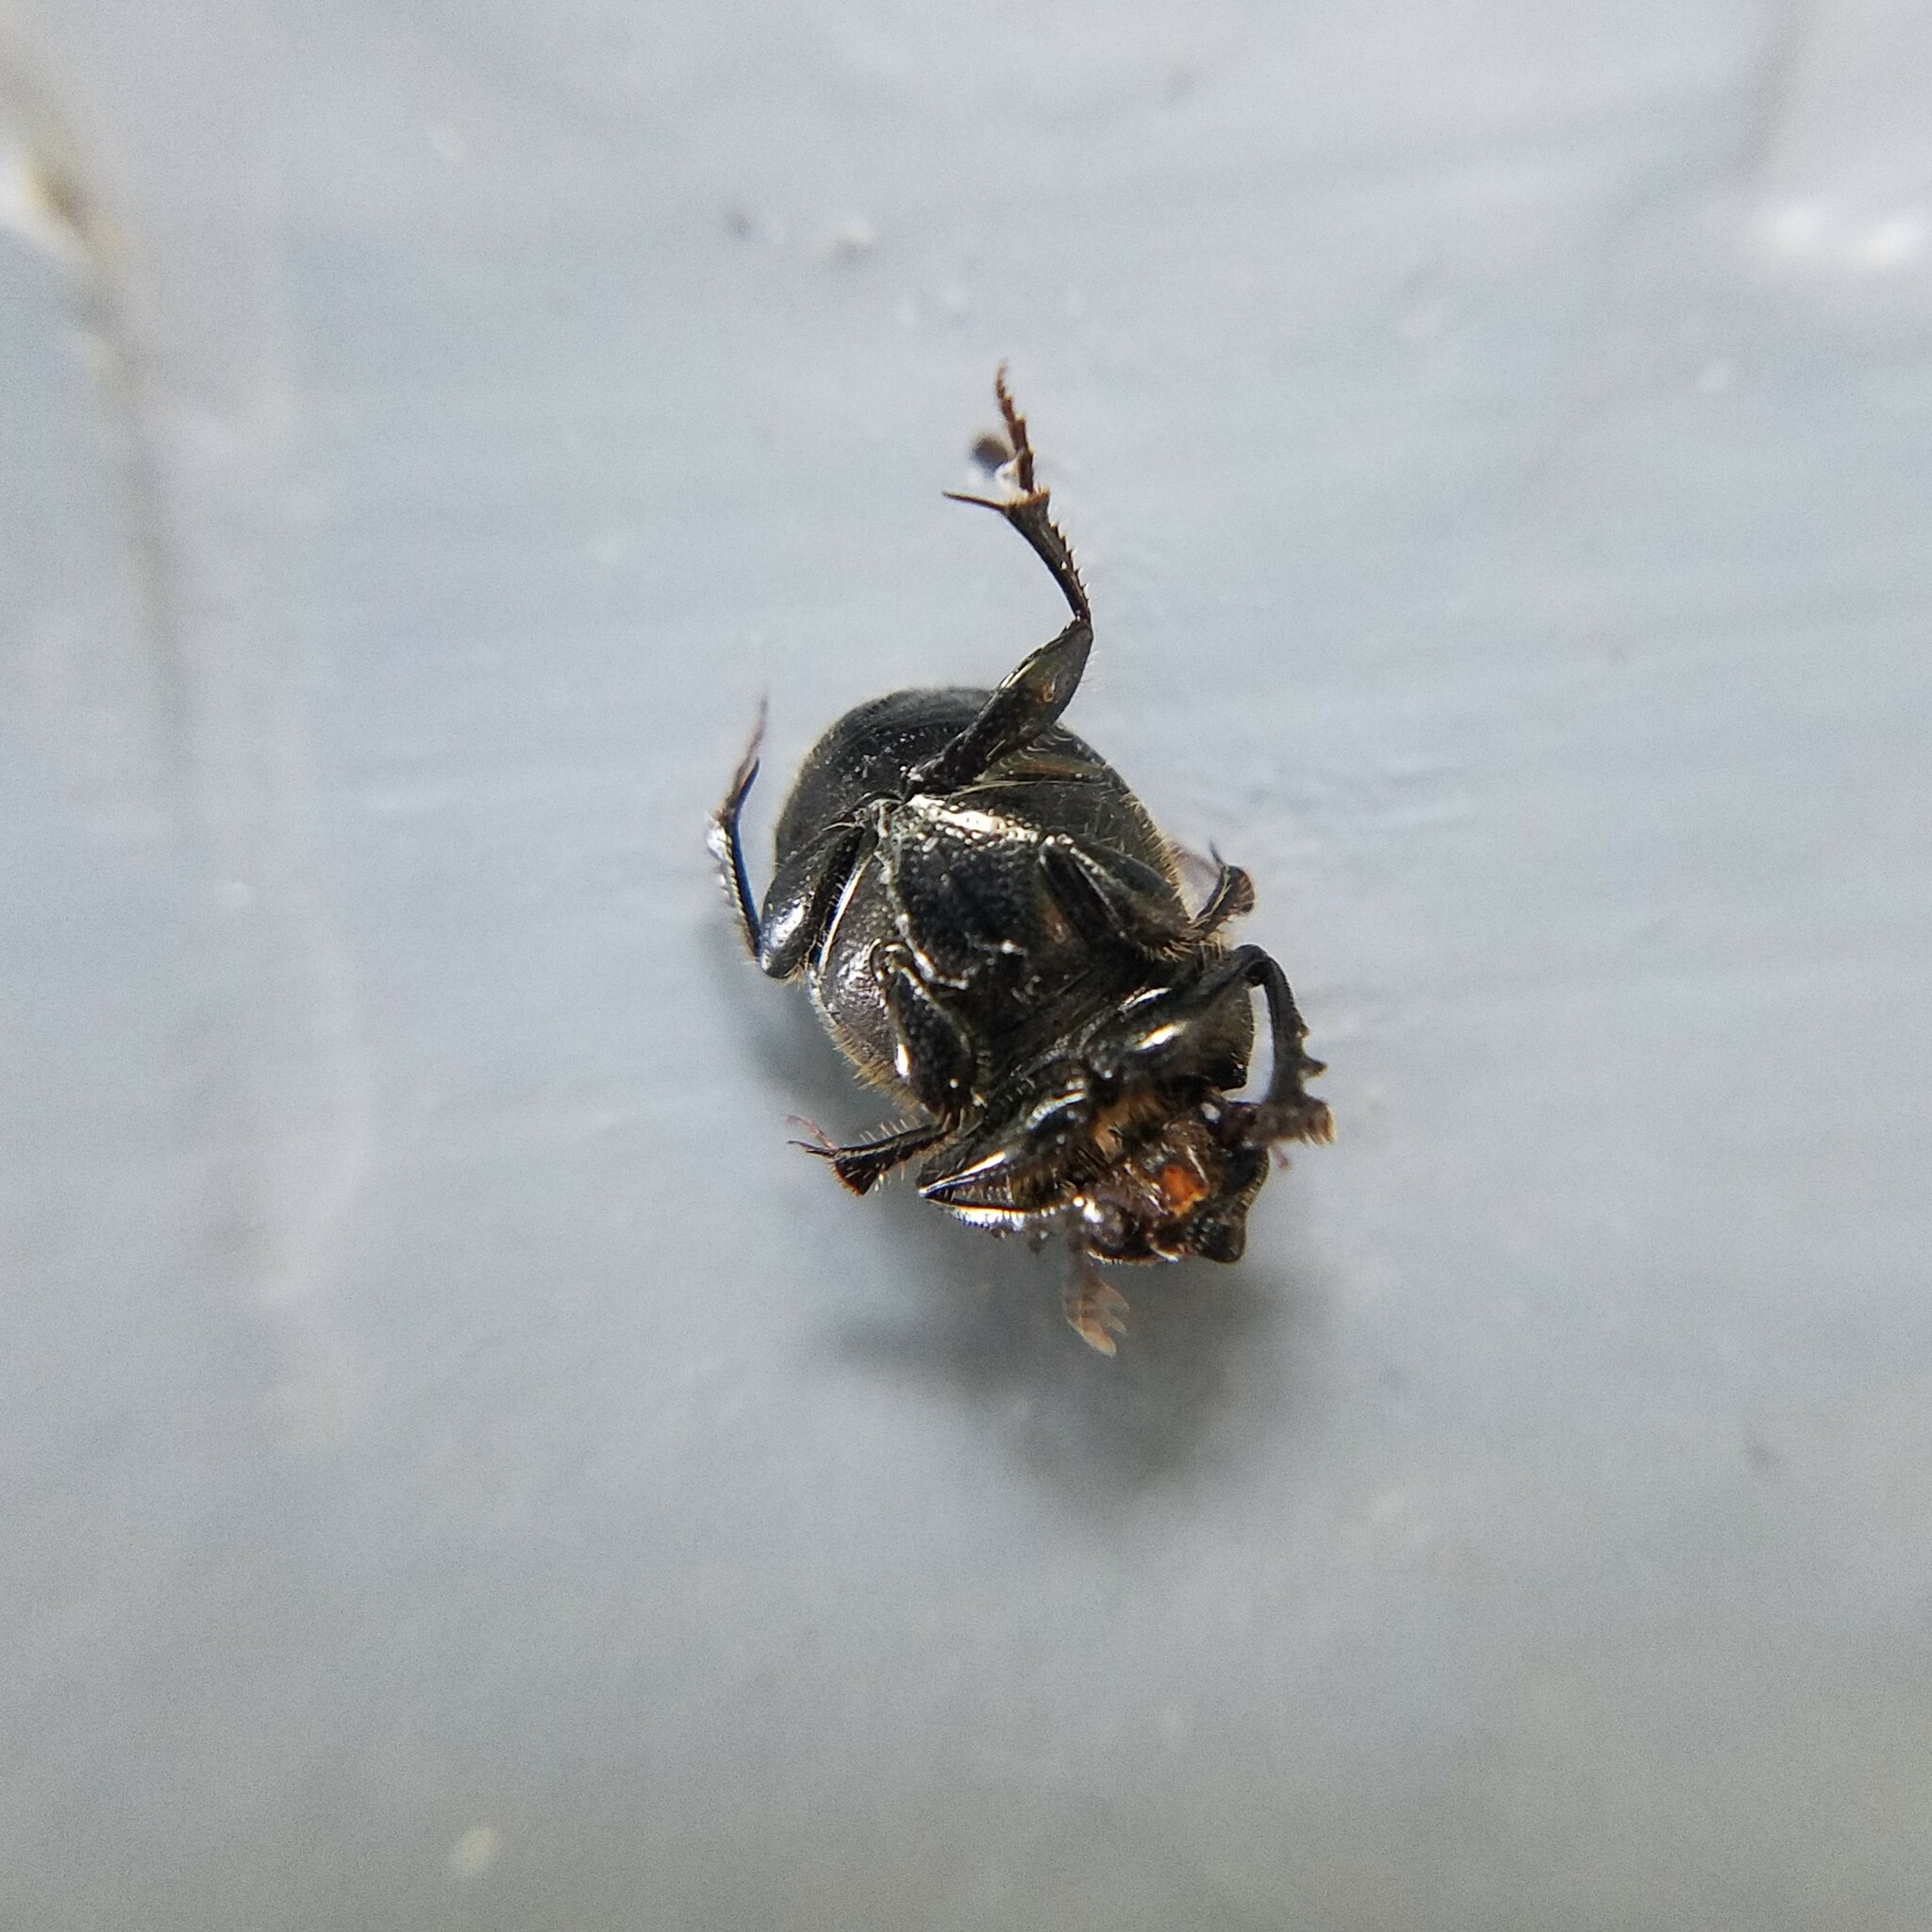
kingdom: Animalia
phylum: Arthropoda
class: Insecta
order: Coleoptera
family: Scarabaeidae
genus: Onthophagus
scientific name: Onthophagus hecate
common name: Scooped scarab
